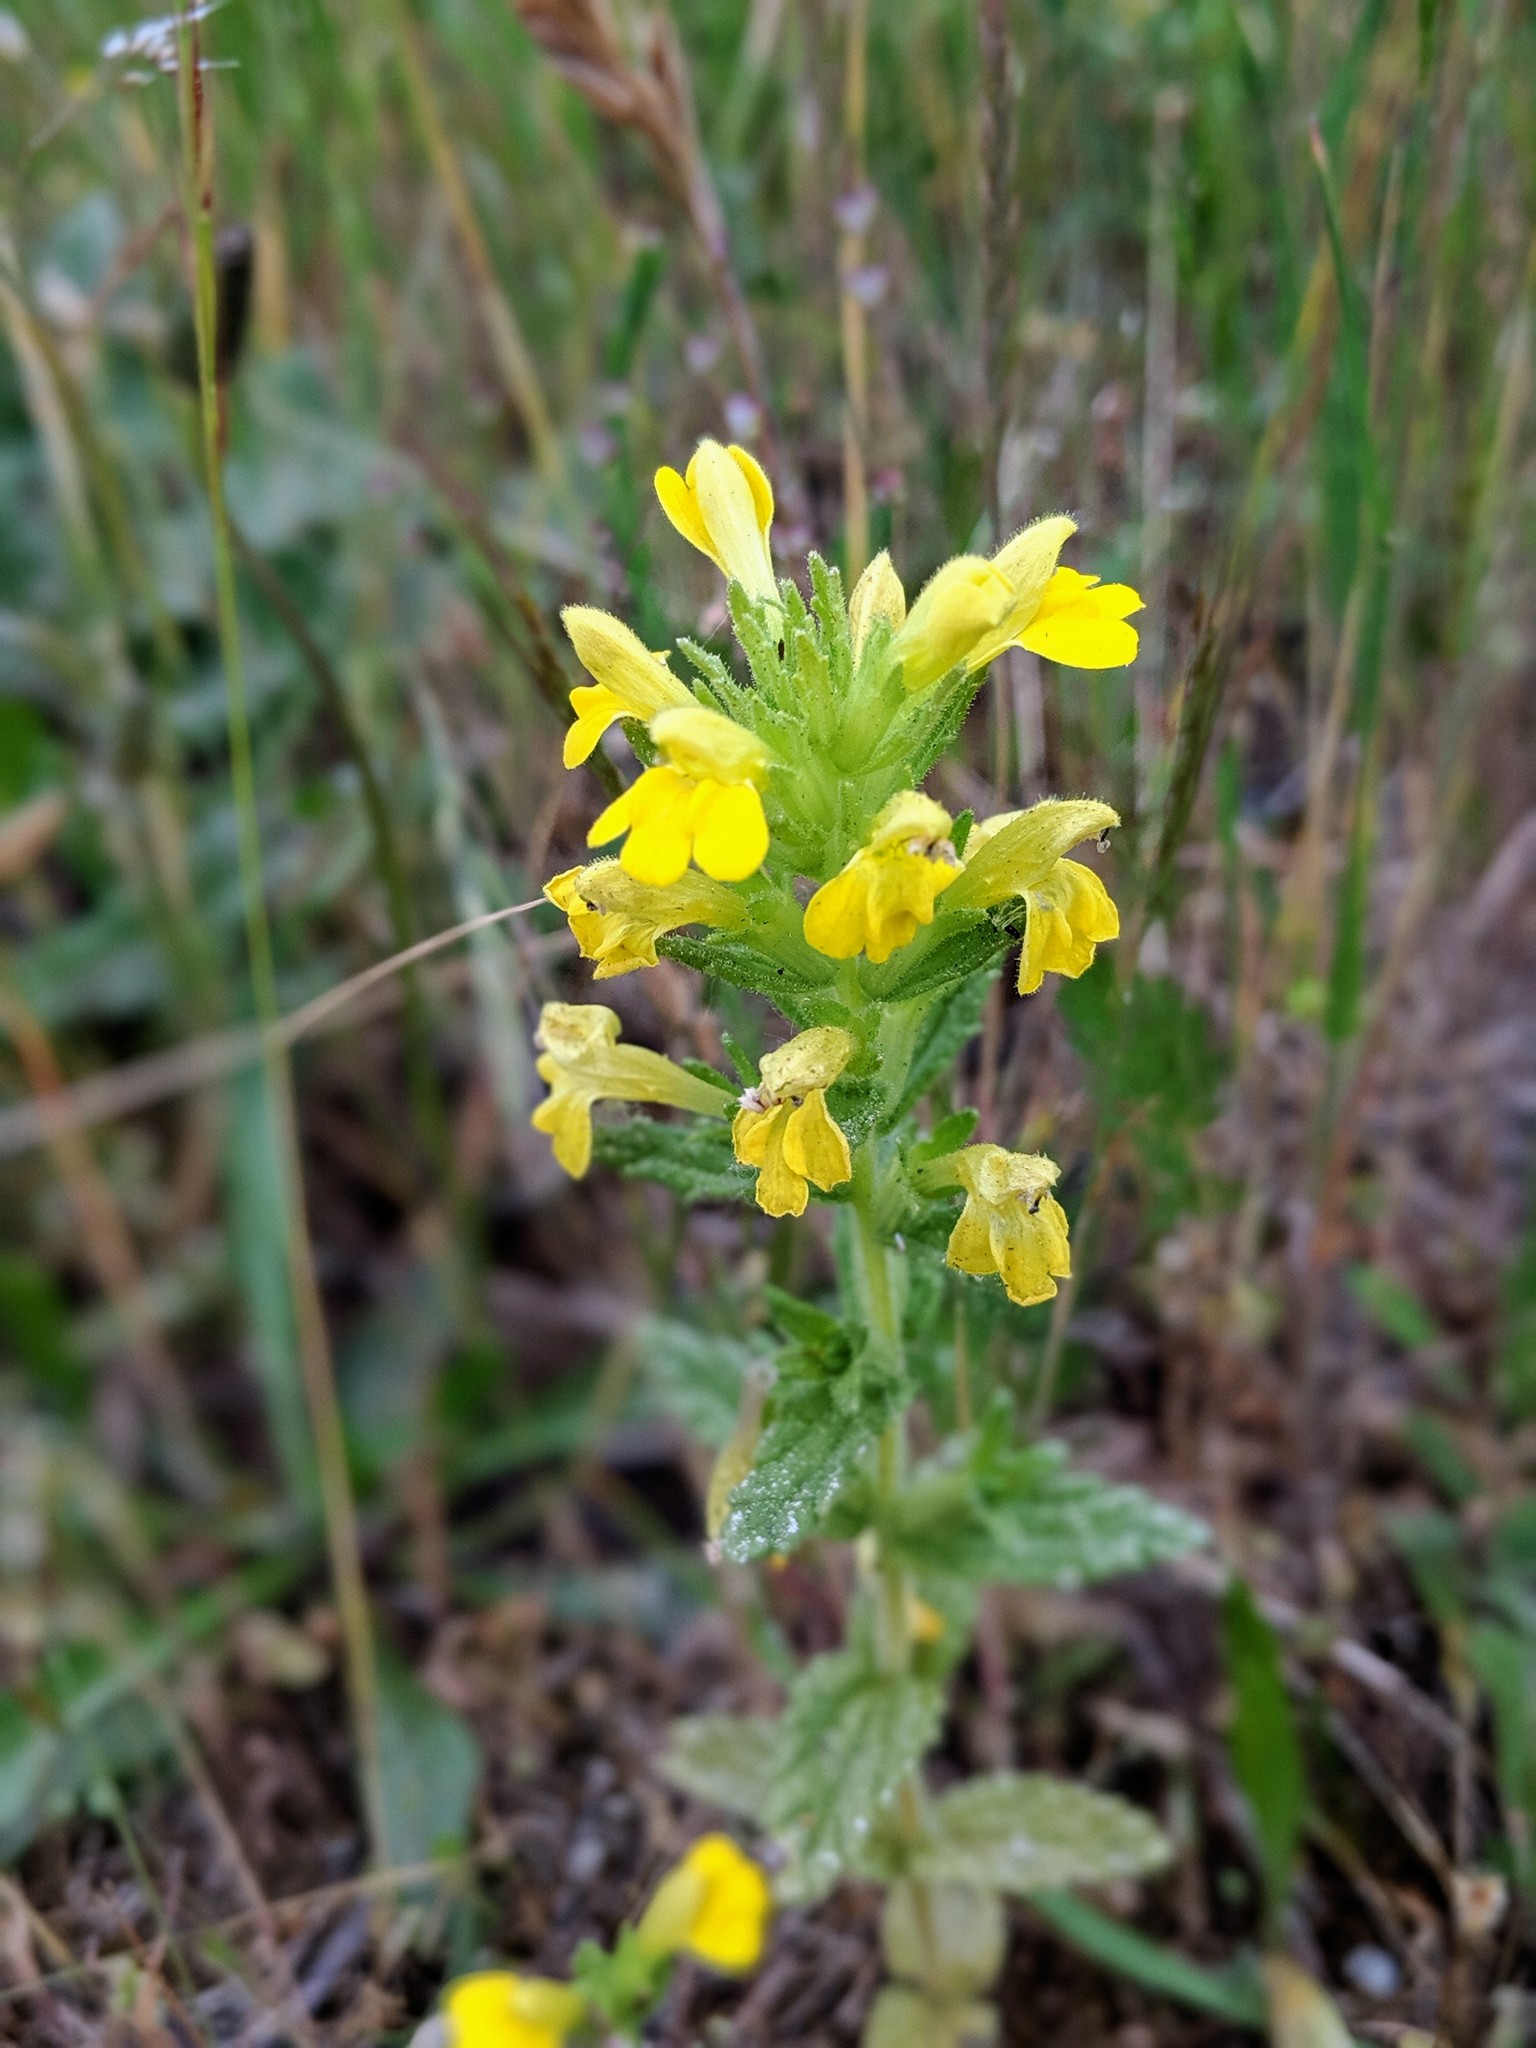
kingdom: Plantae
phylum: Tracheophyta
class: Magnoliopsida
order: Lamiales
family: Orobanchaceae
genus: Bellardia
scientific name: Bellardia viscosa
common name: Sticky parentucellia
